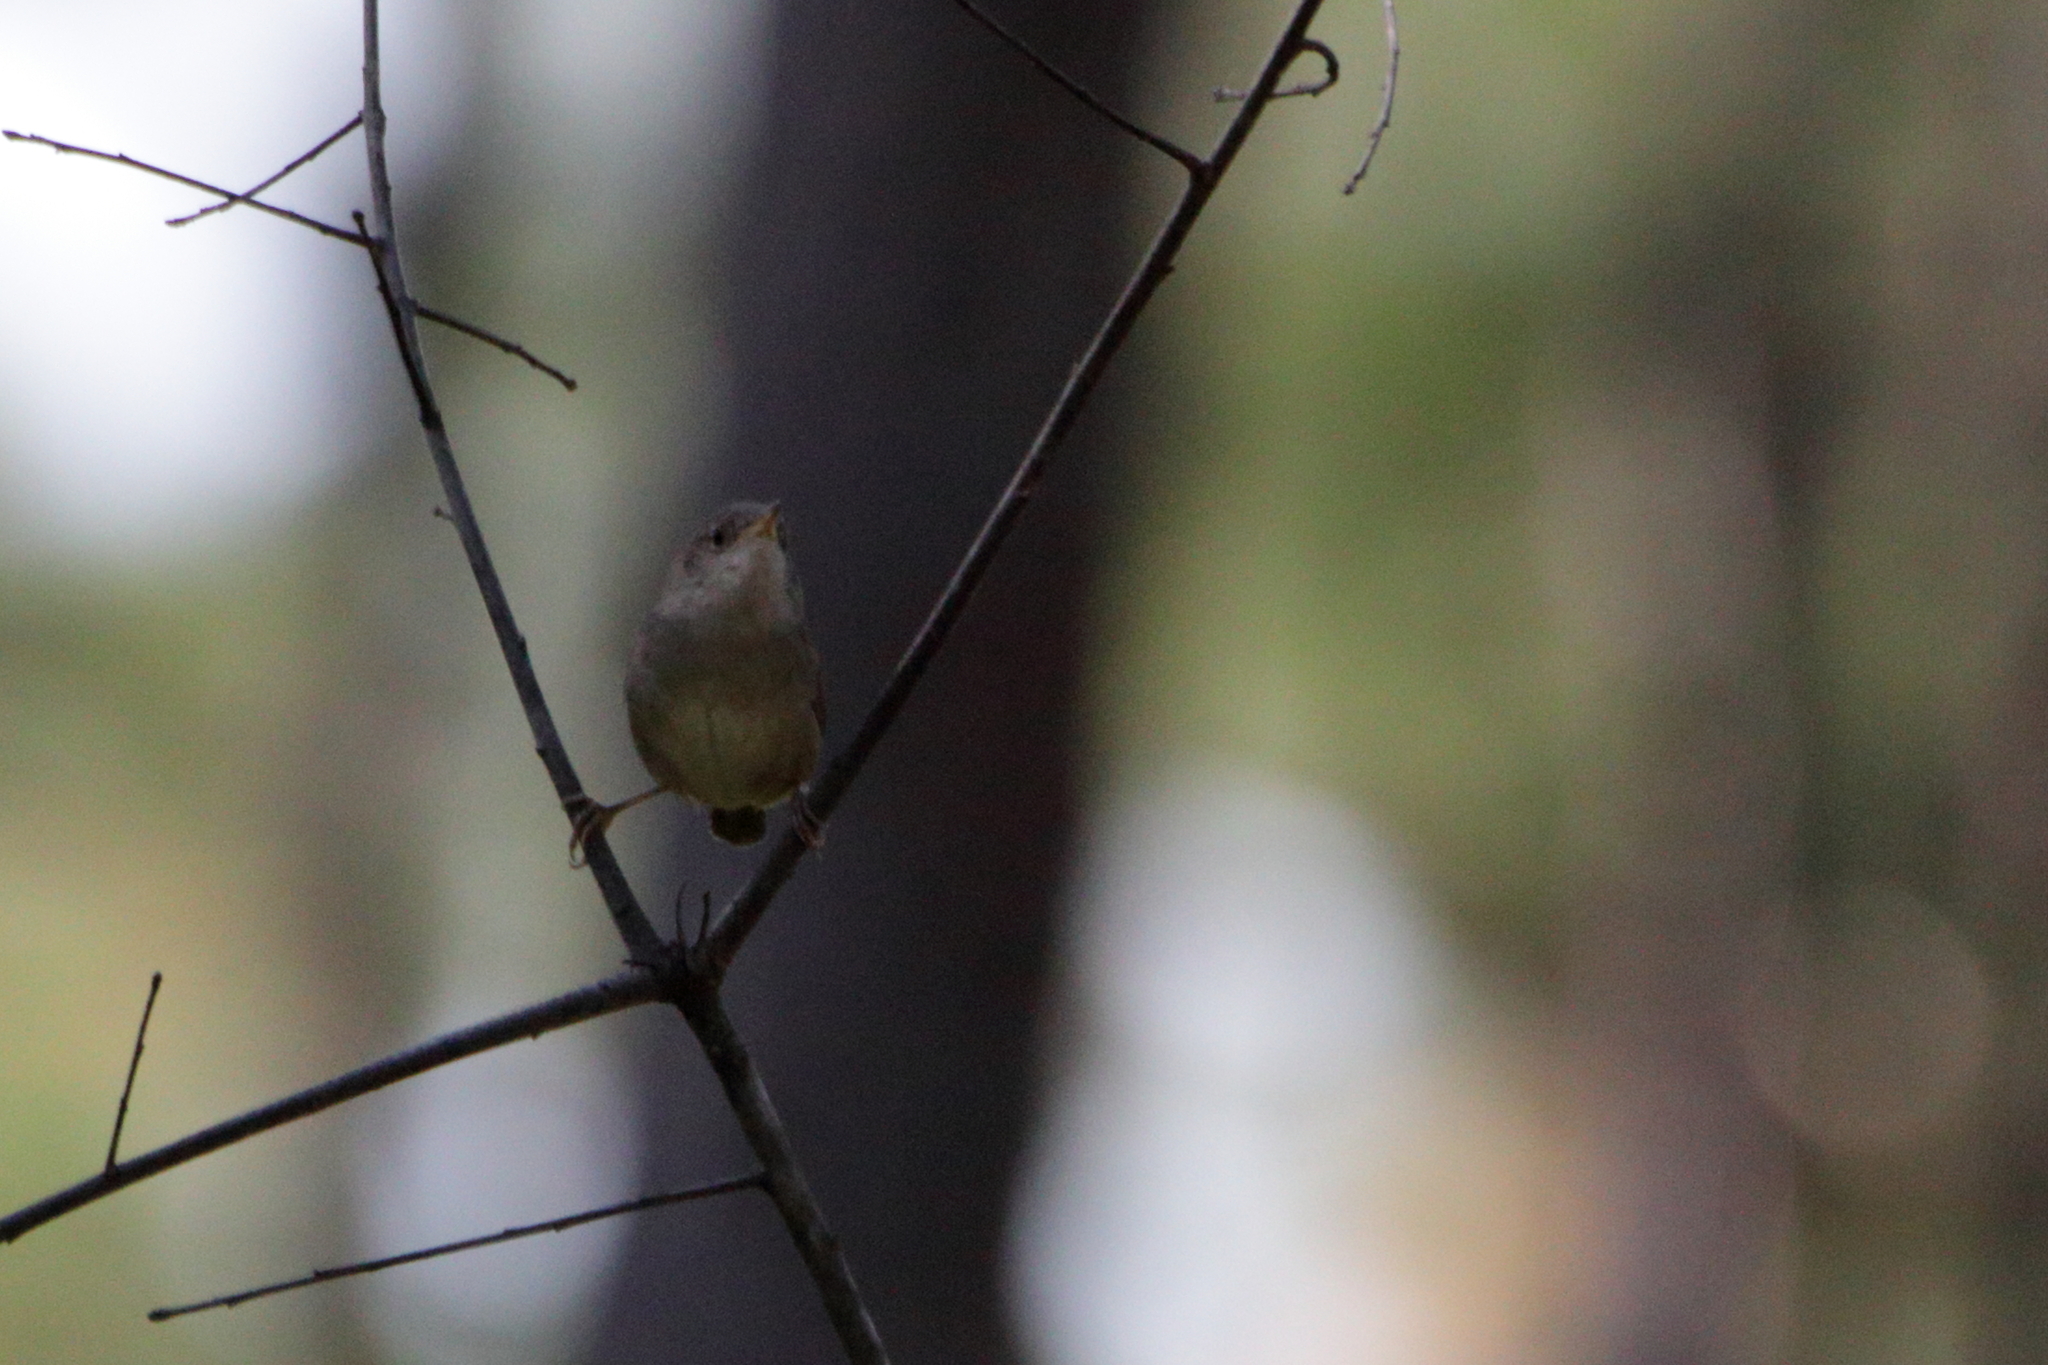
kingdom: Animalia
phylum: Chordata
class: Aves
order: Passeriformes
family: Troglodytidae
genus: Troglodytes
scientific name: Troglodytes aedon
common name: House wren
